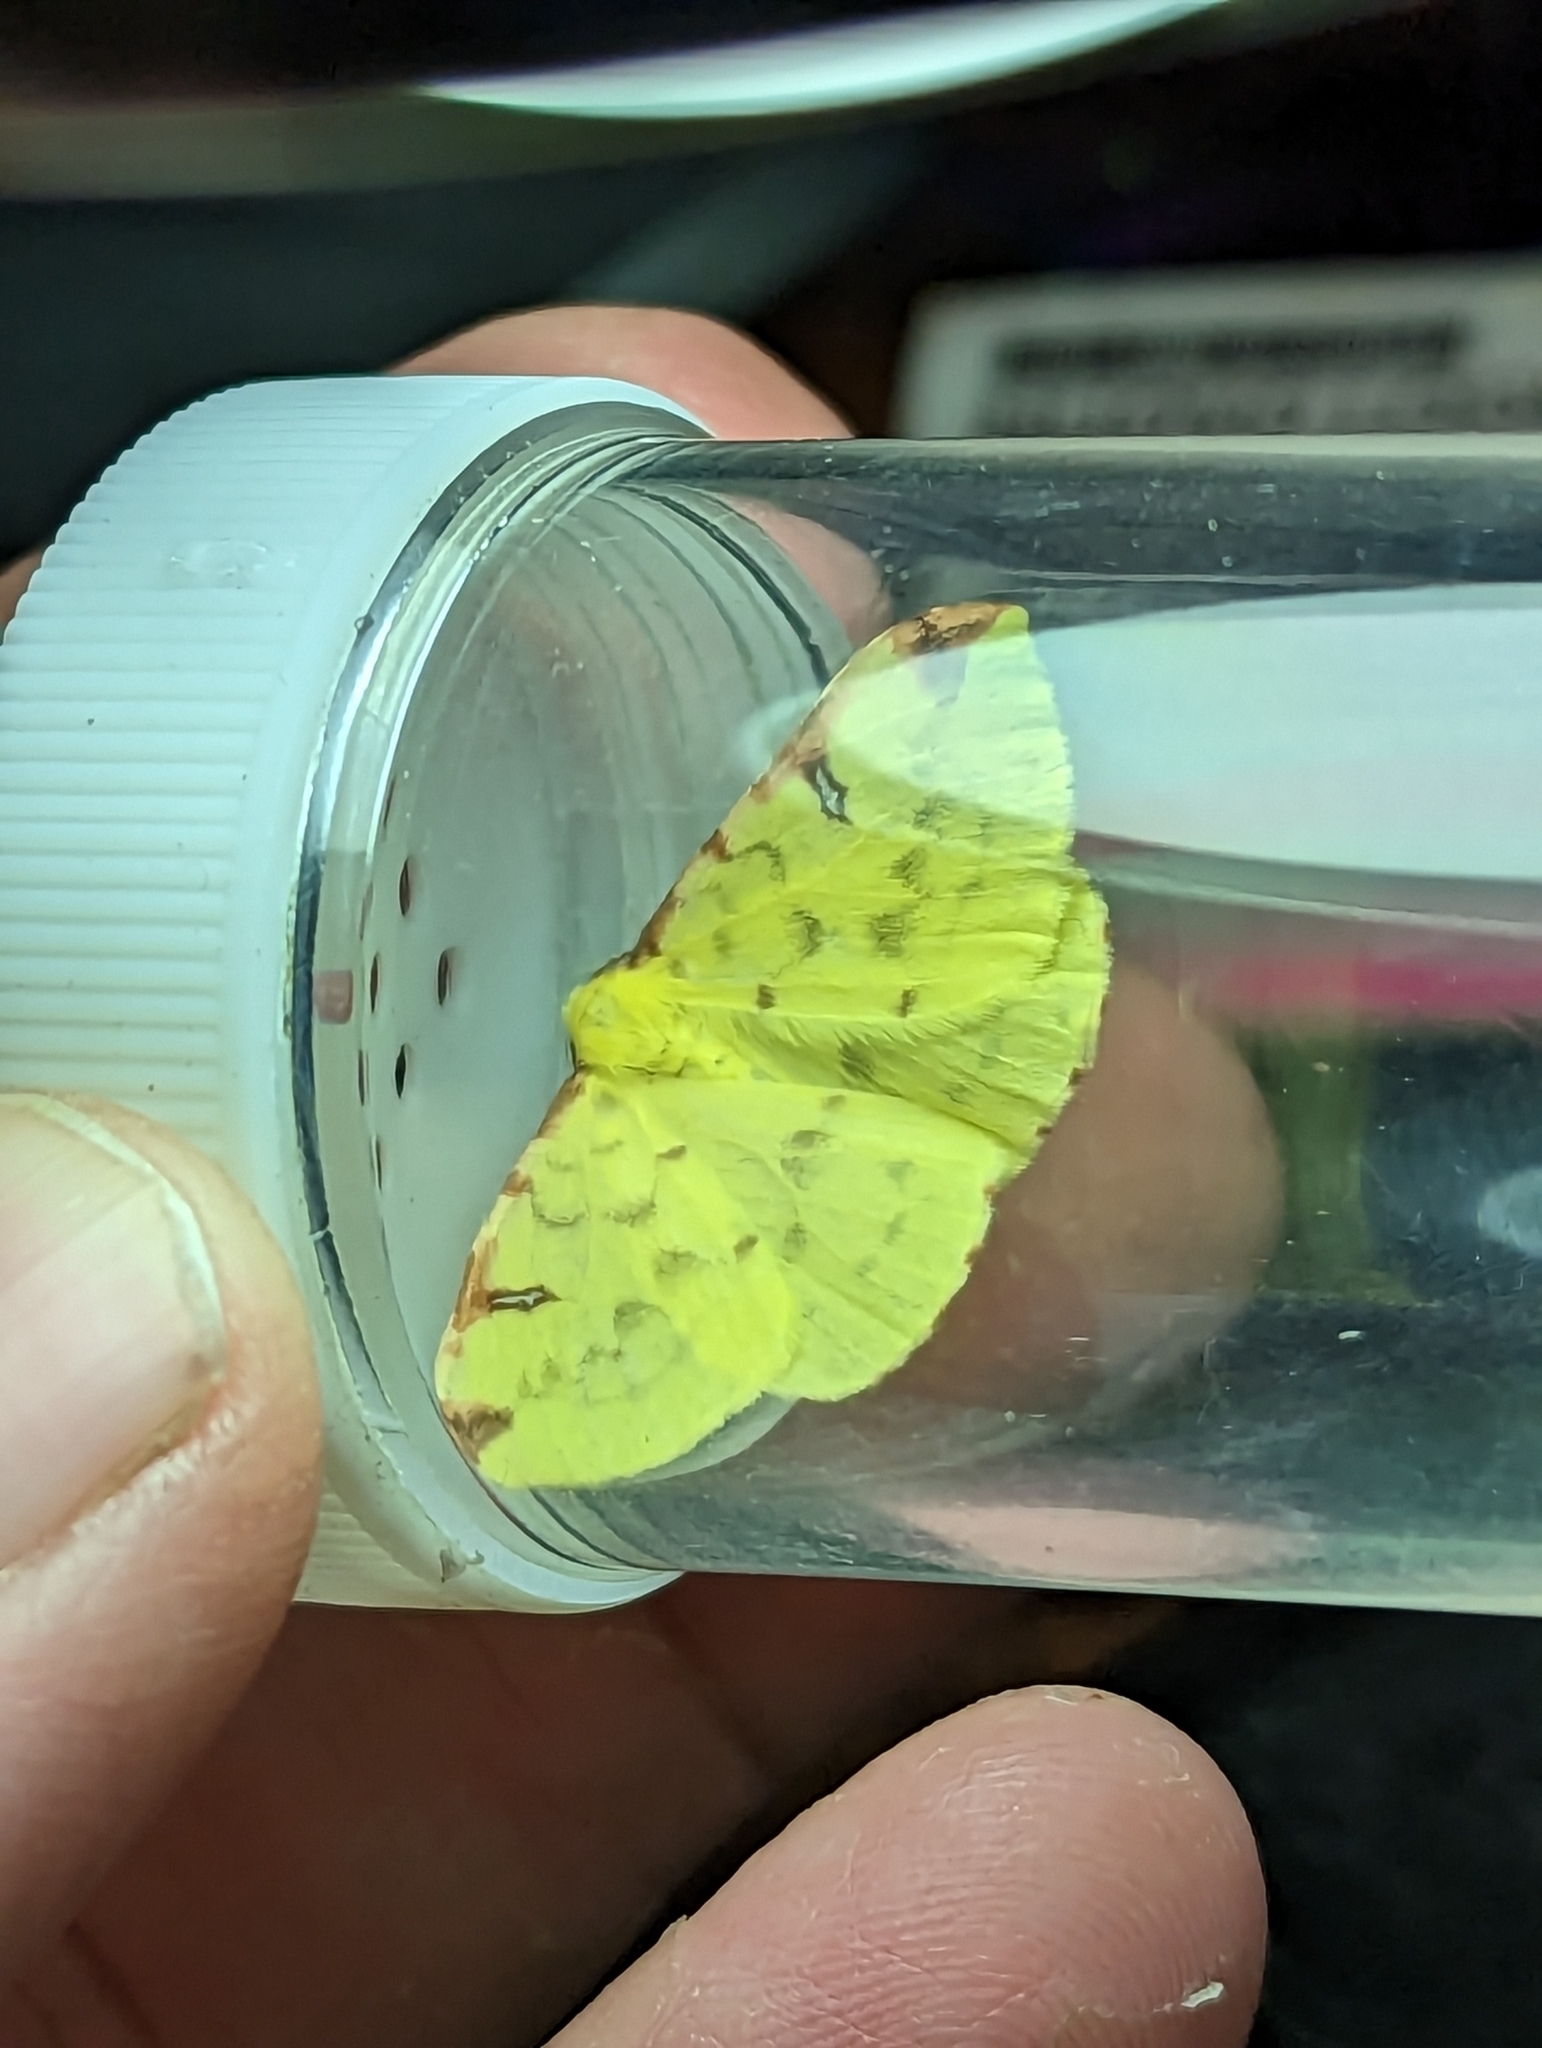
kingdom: Animalia
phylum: Arthropoda
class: Insecta
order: Lepidoptera
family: Geometridae
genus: Opisthograptis
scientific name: Opisthograptis luteolata
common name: Brimstone moth
